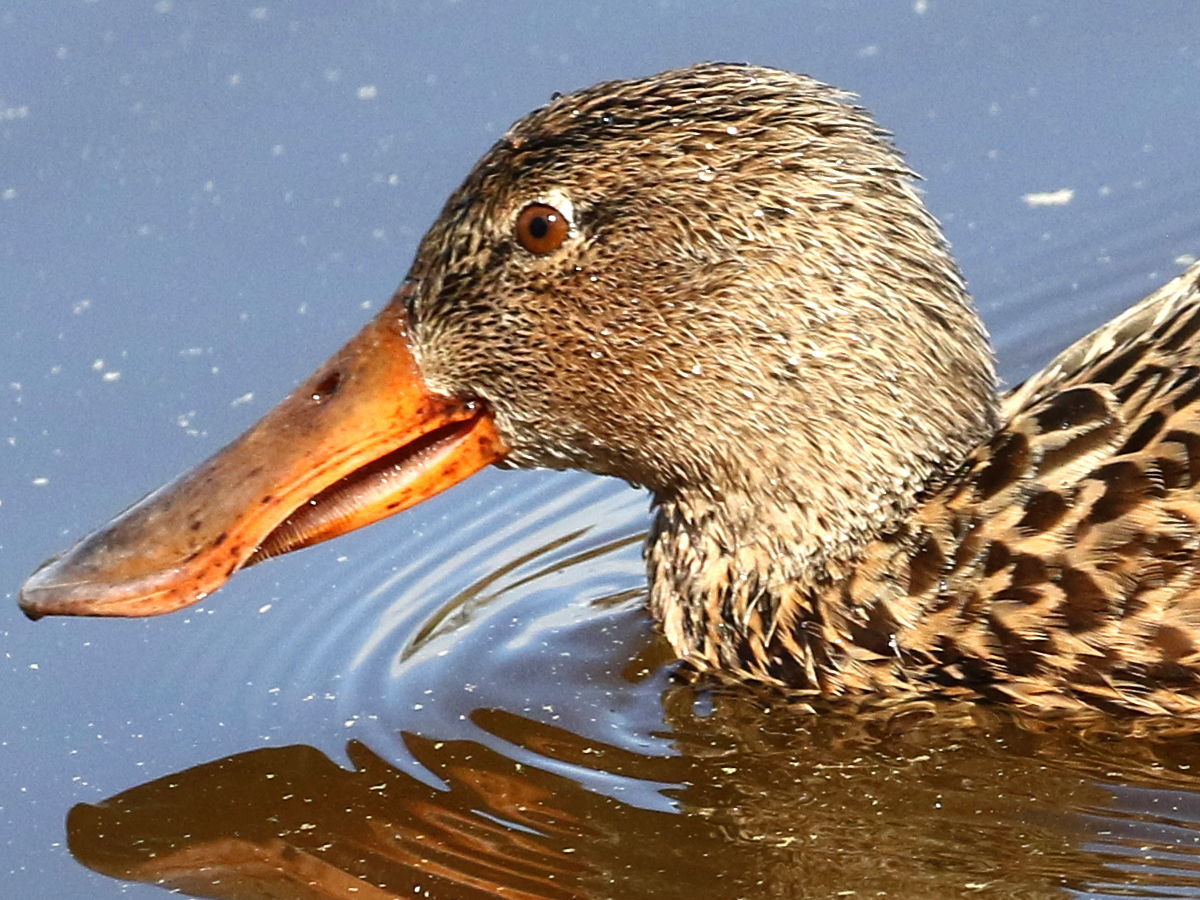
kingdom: Animalia
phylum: Chordata
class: Aves
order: Anseriformes
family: Anatidae
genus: Spatula
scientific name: Spatula clypeata
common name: Northern shoveler
